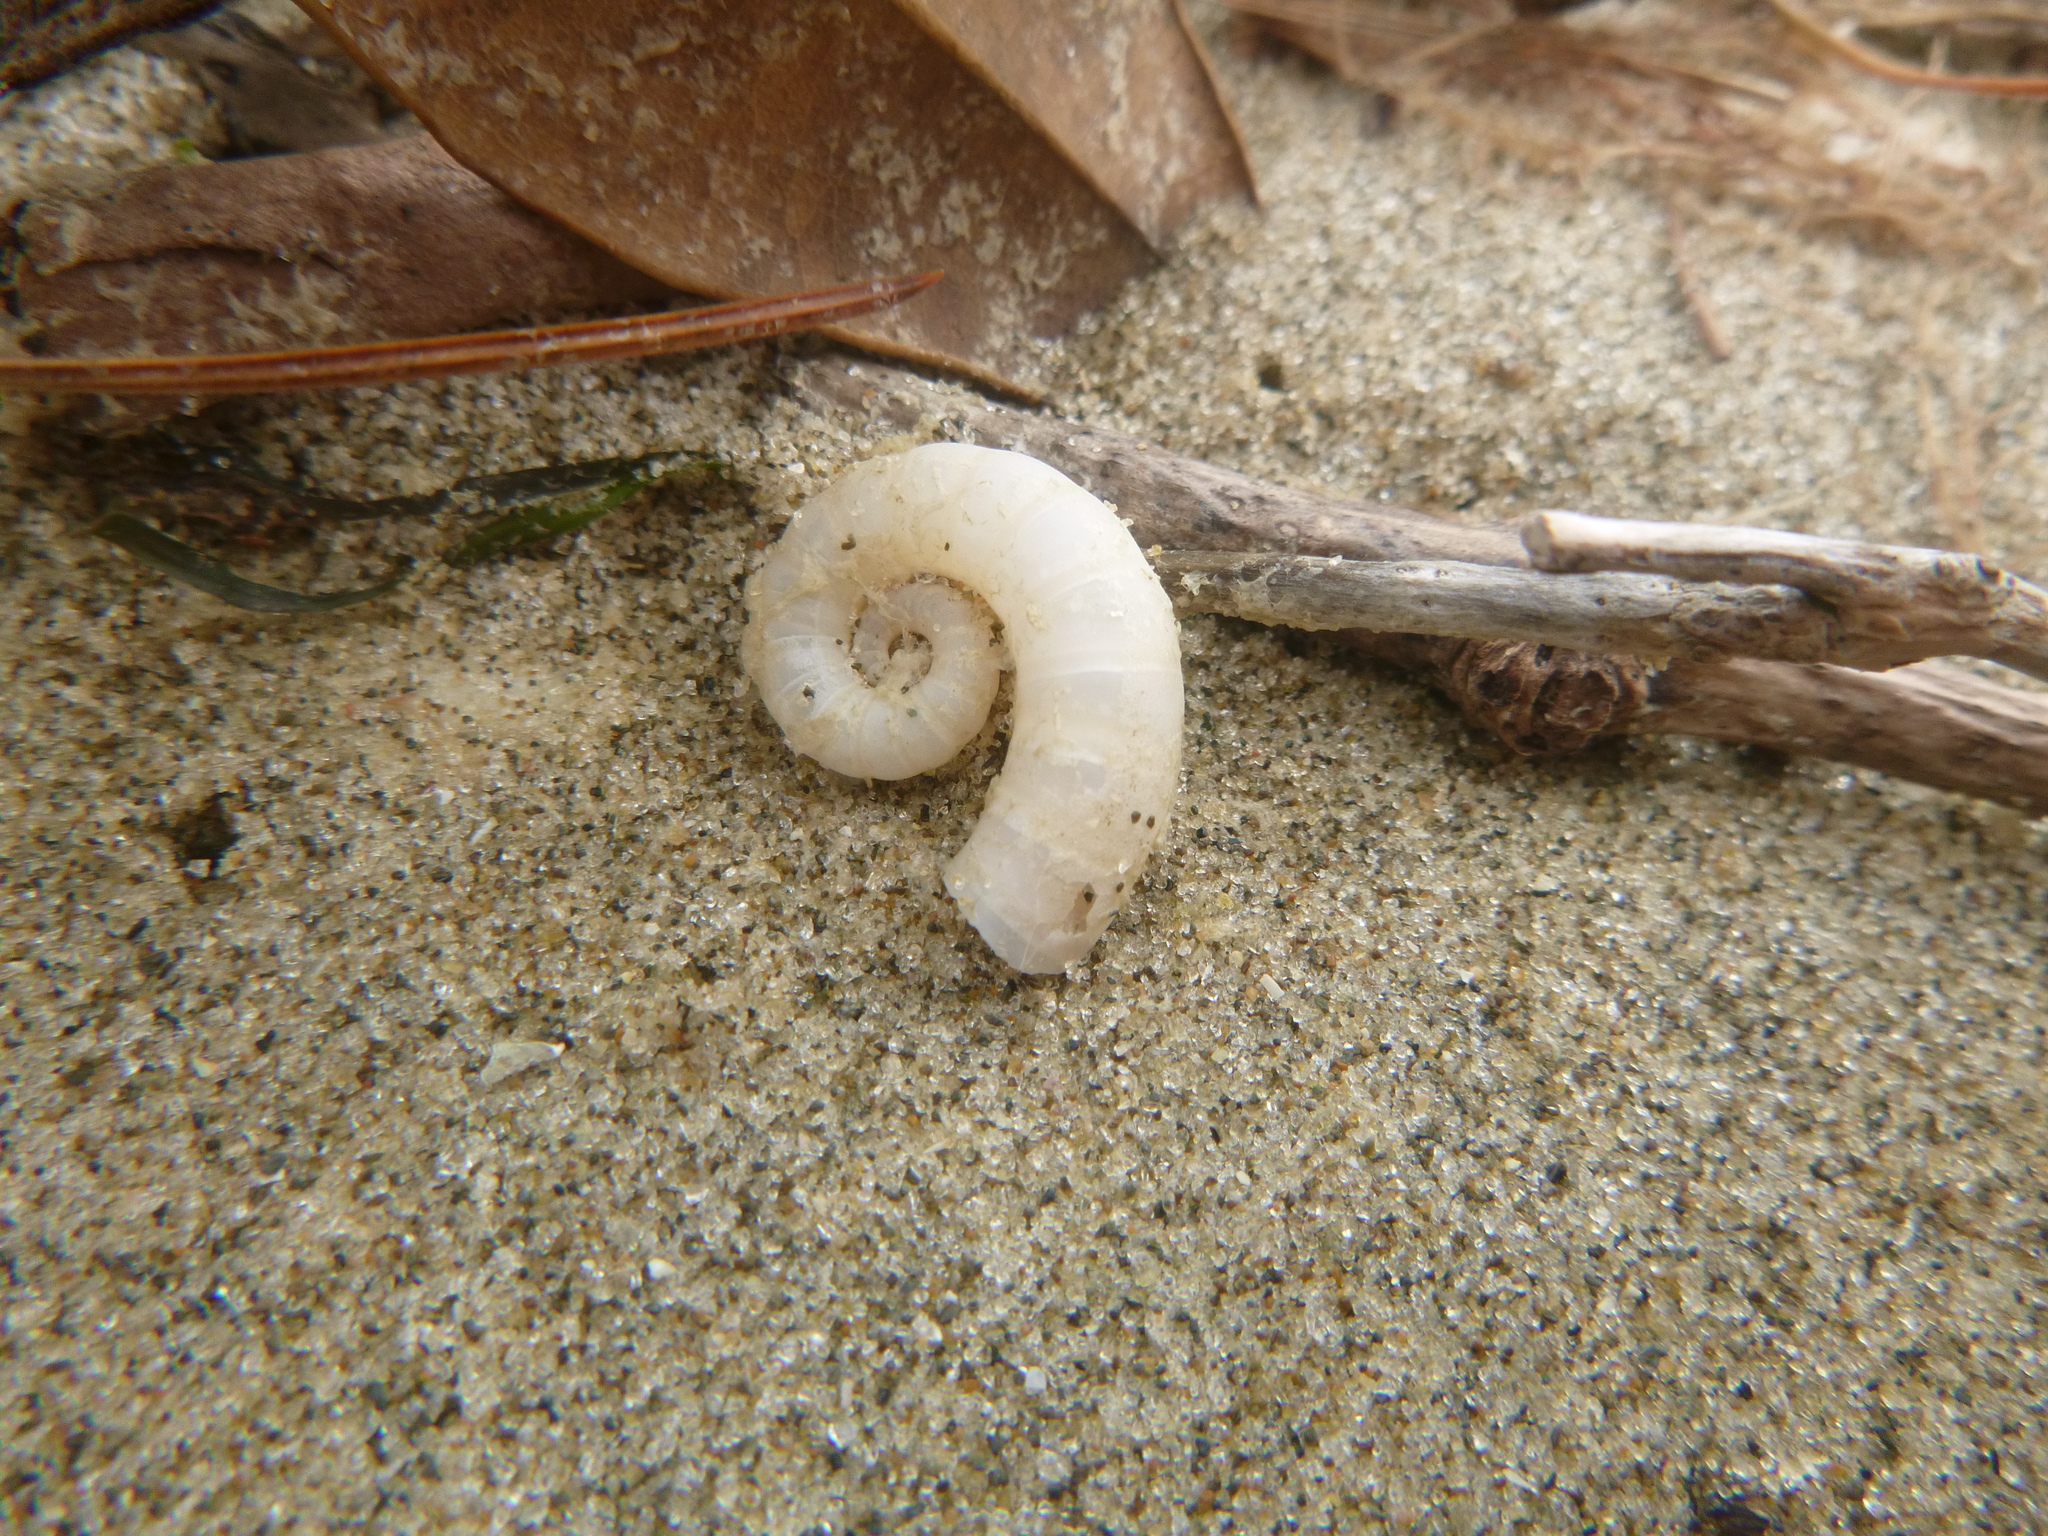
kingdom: Animalia
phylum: Mollusca
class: Cephalopoda
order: Spirulida
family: Spirulidae
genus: Spirula
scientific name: Spirula spirula
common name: Ram's horn squid
